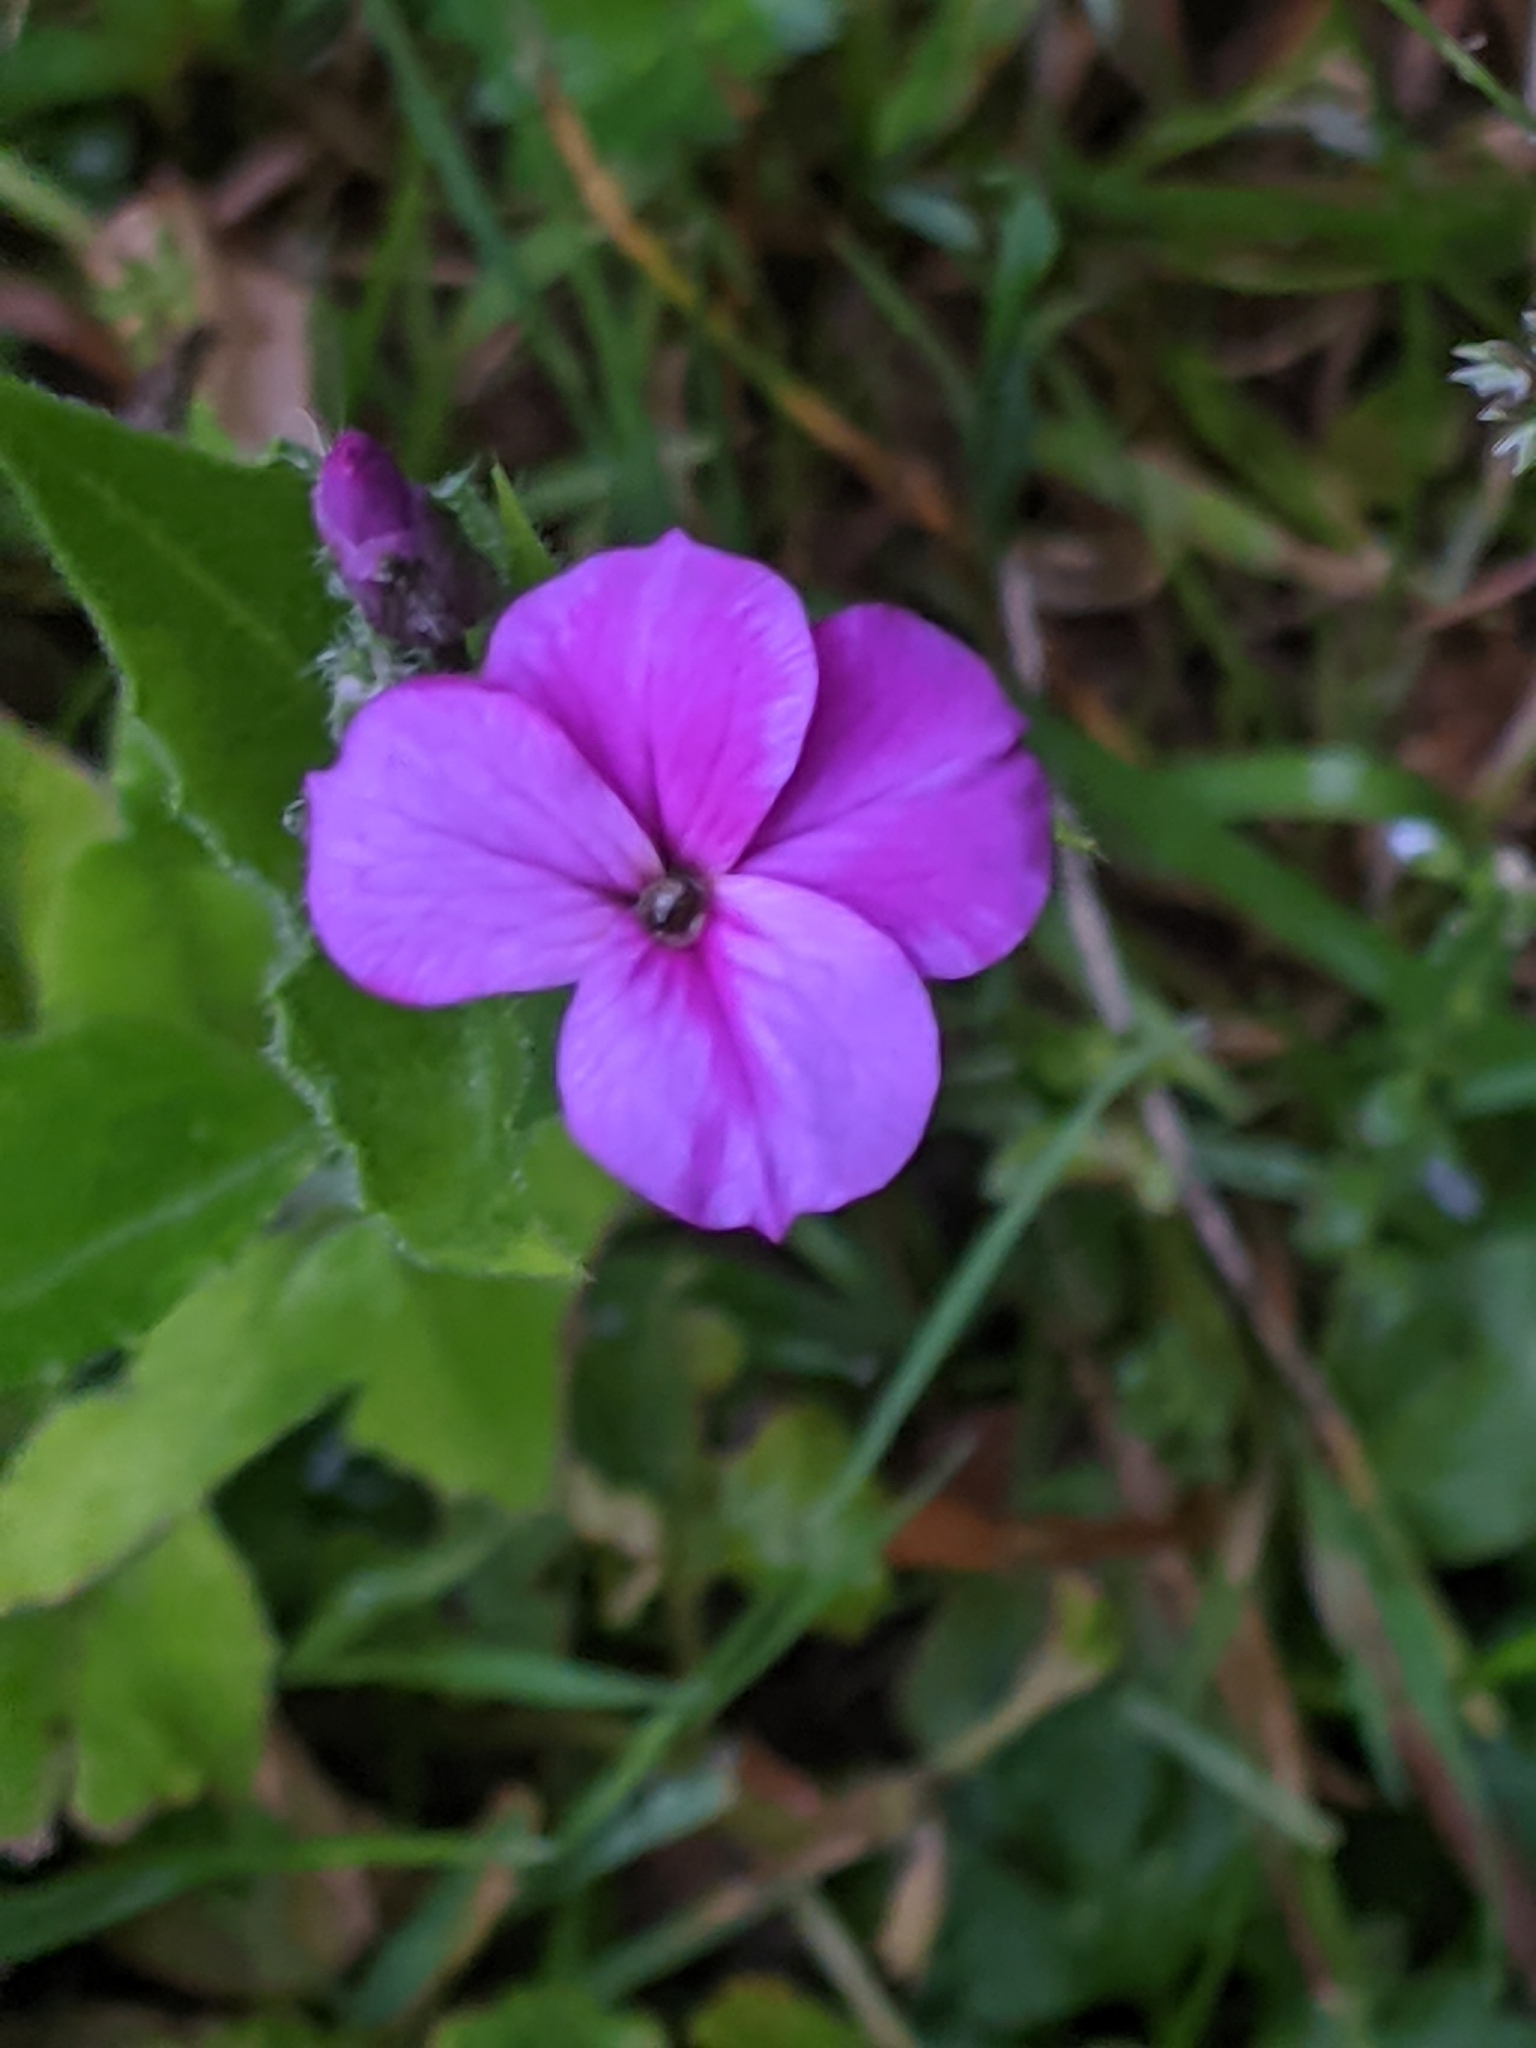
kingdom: Plantae
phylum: Tracheophyta
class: Magnoliopsida
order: Brassicales
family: Brassicaceae
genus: Hesperis
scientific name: Hesperis matronalis
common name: Dame's-violet
